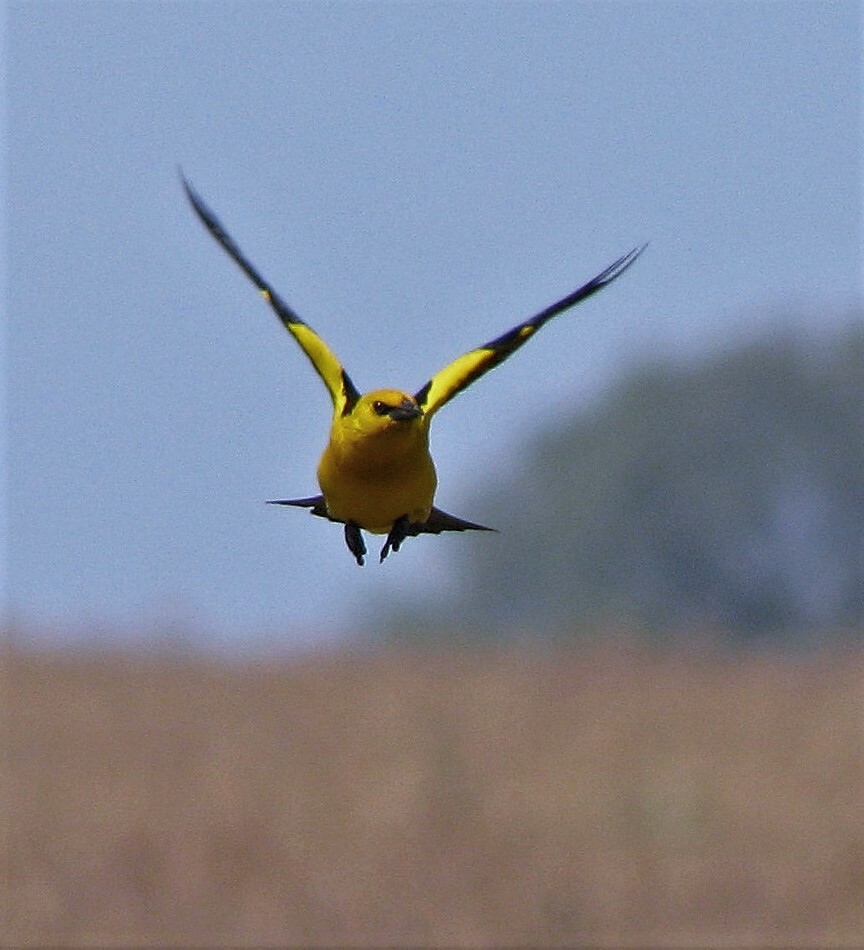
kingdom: Animalia
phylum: Chordata
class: Aves
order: Passeriformes
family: Icteridae
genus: Xanthopsar
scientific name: Xanthopsar flavus
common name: Saffron-cowled blackbird
